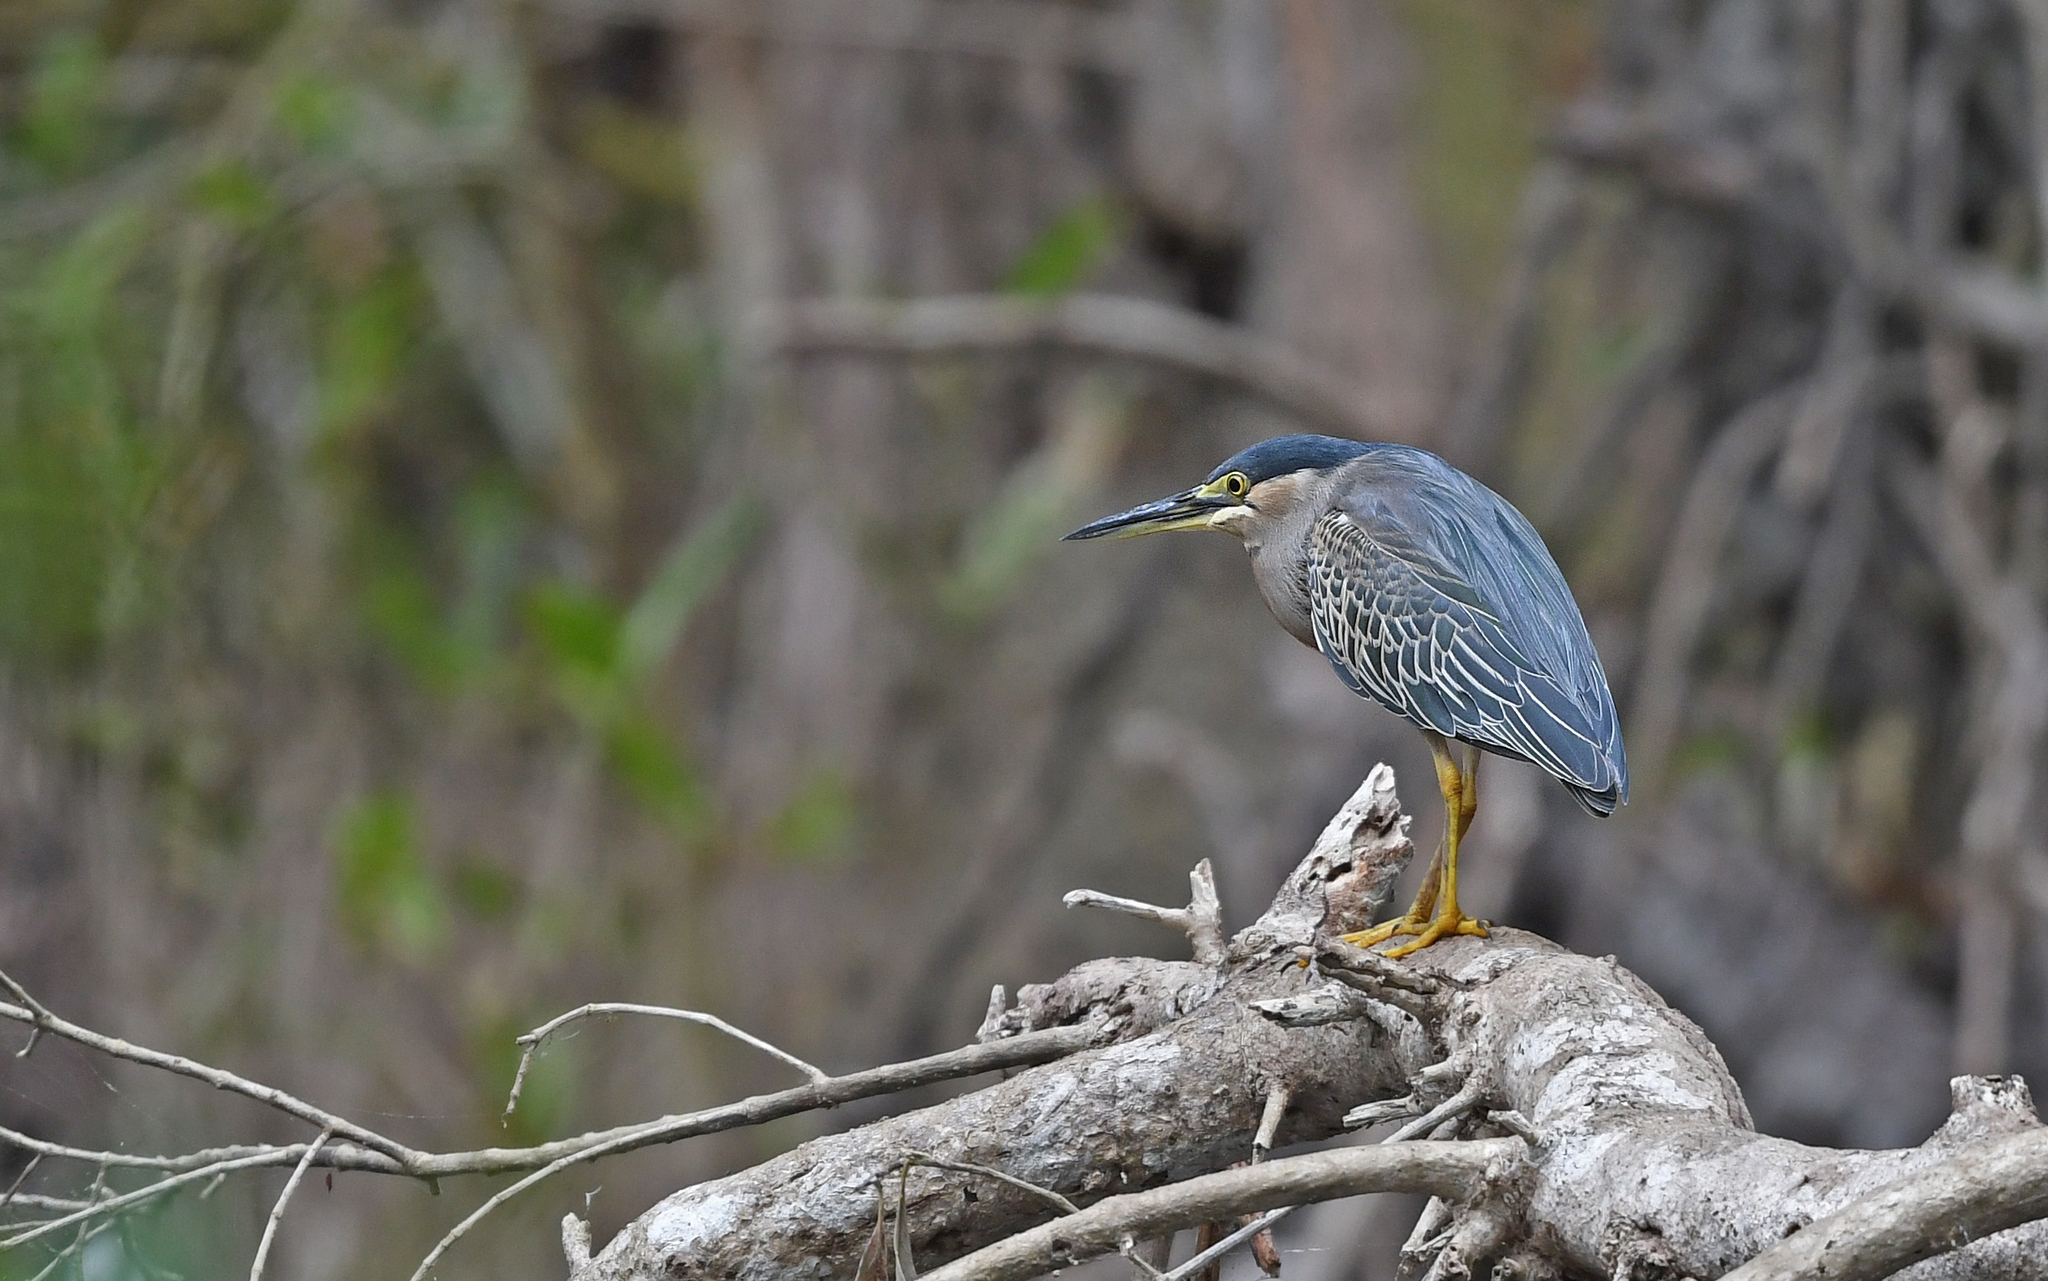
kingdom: Animalia
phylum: Chordata
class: Aves
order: Pelecaniformes
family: Ardeidae
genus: Butorides
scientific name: Butorides striata
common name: Striated heron
